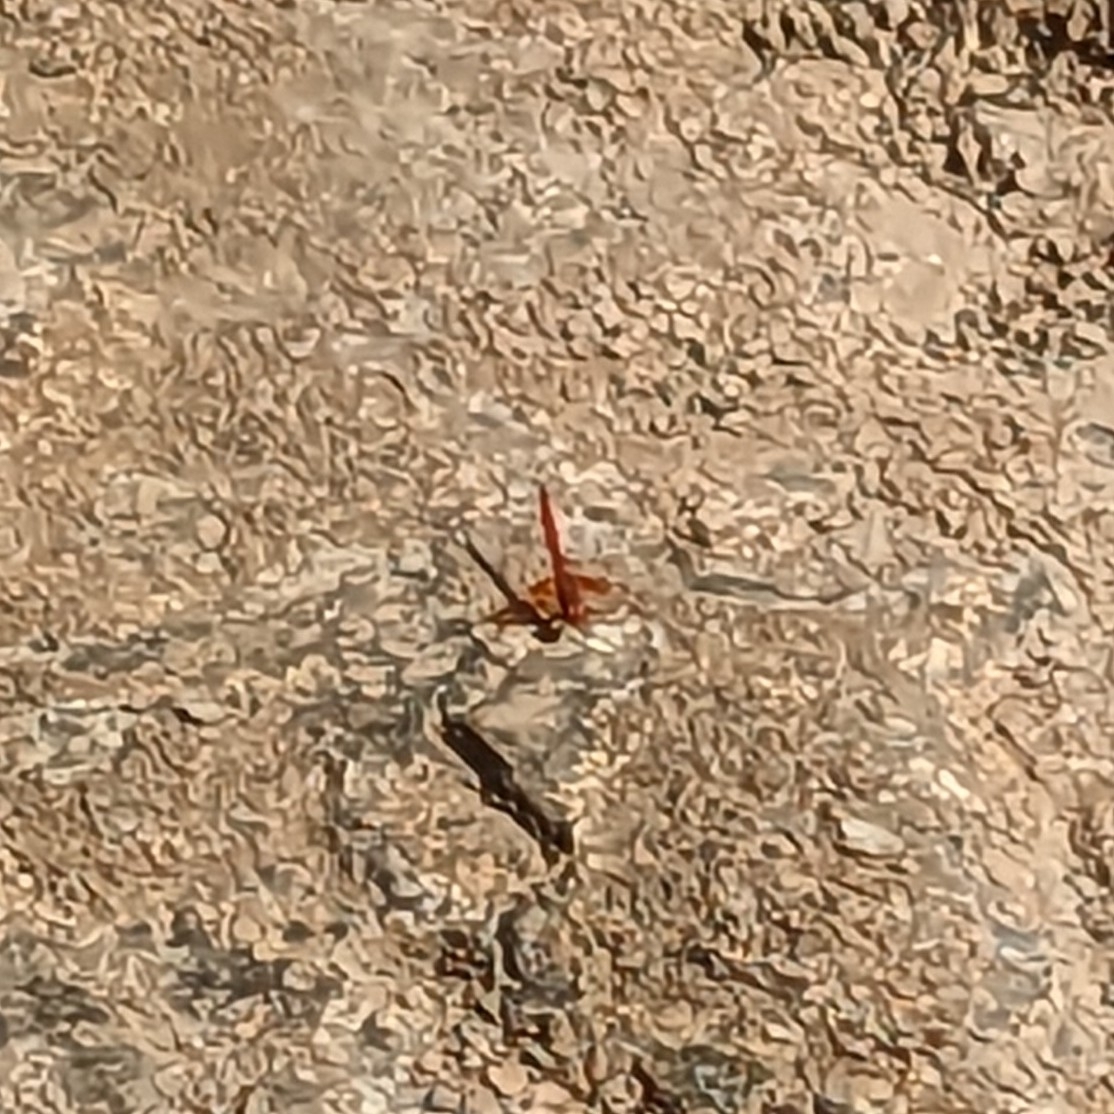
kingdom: Animalia
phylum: Arthropoda
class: Insecta
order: Odonata
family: Libellulidae
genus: Trithemis
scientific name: Trithemis kirbyi
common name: Kirby's dropwing
